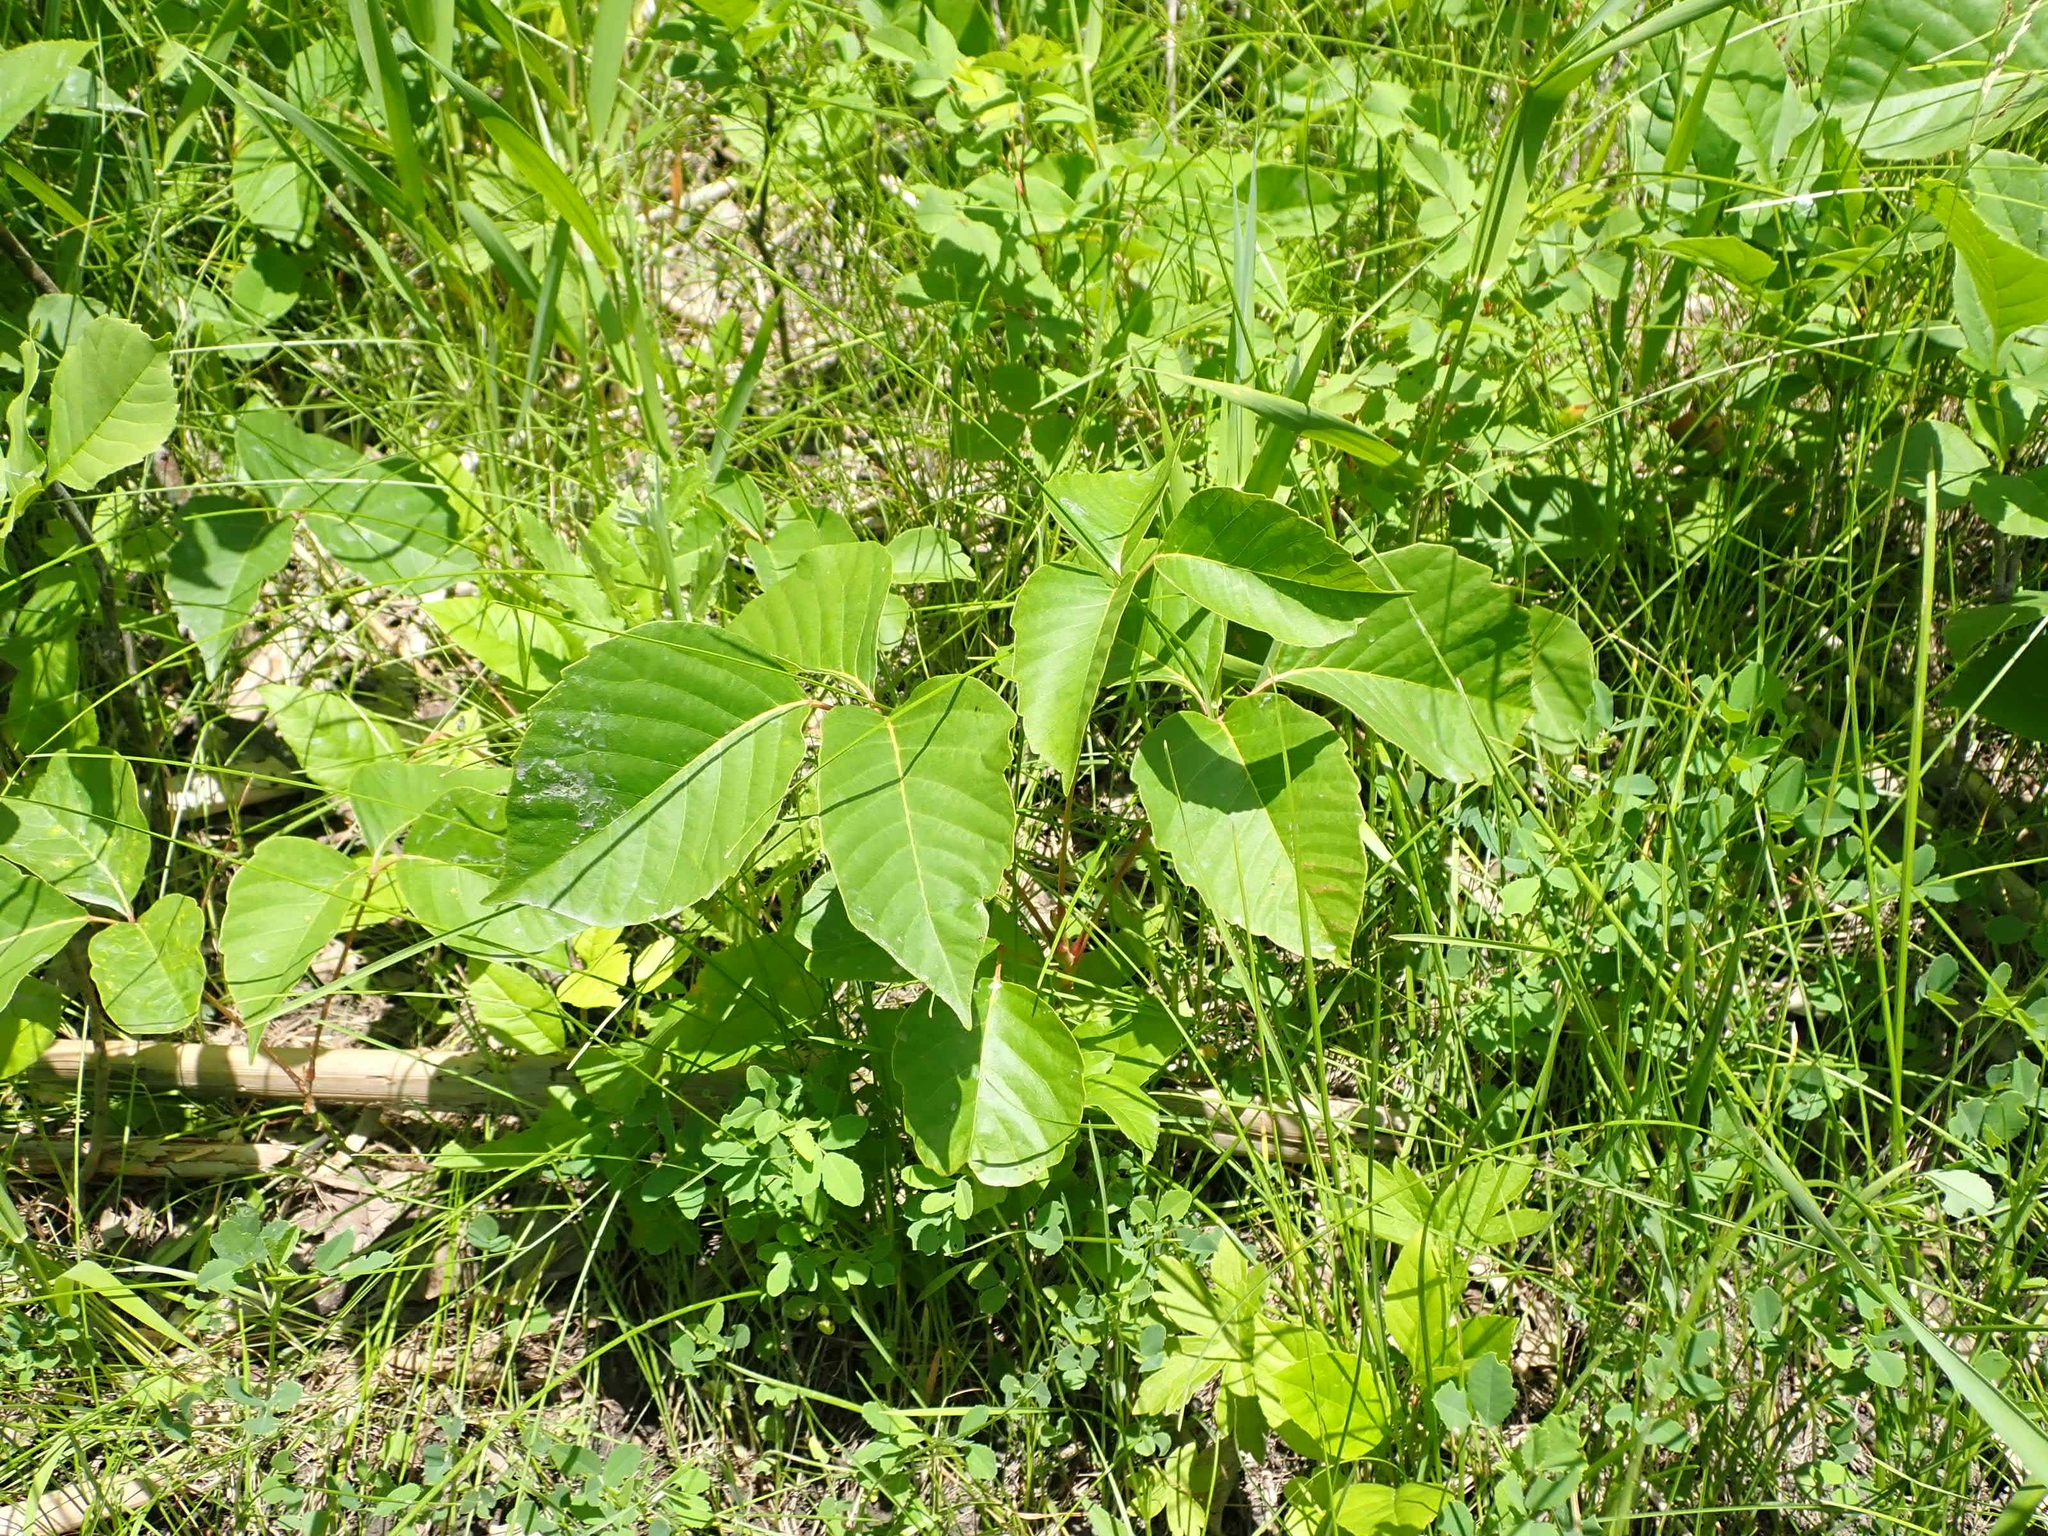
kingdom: Plantae
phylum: Tracheophyta
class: Magnoliopsida
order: Sapindales
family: Anacardiaceae
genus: Toxicodendron
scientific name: Toxicodendron rydbergii
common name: Rydberg's poison-ivy
